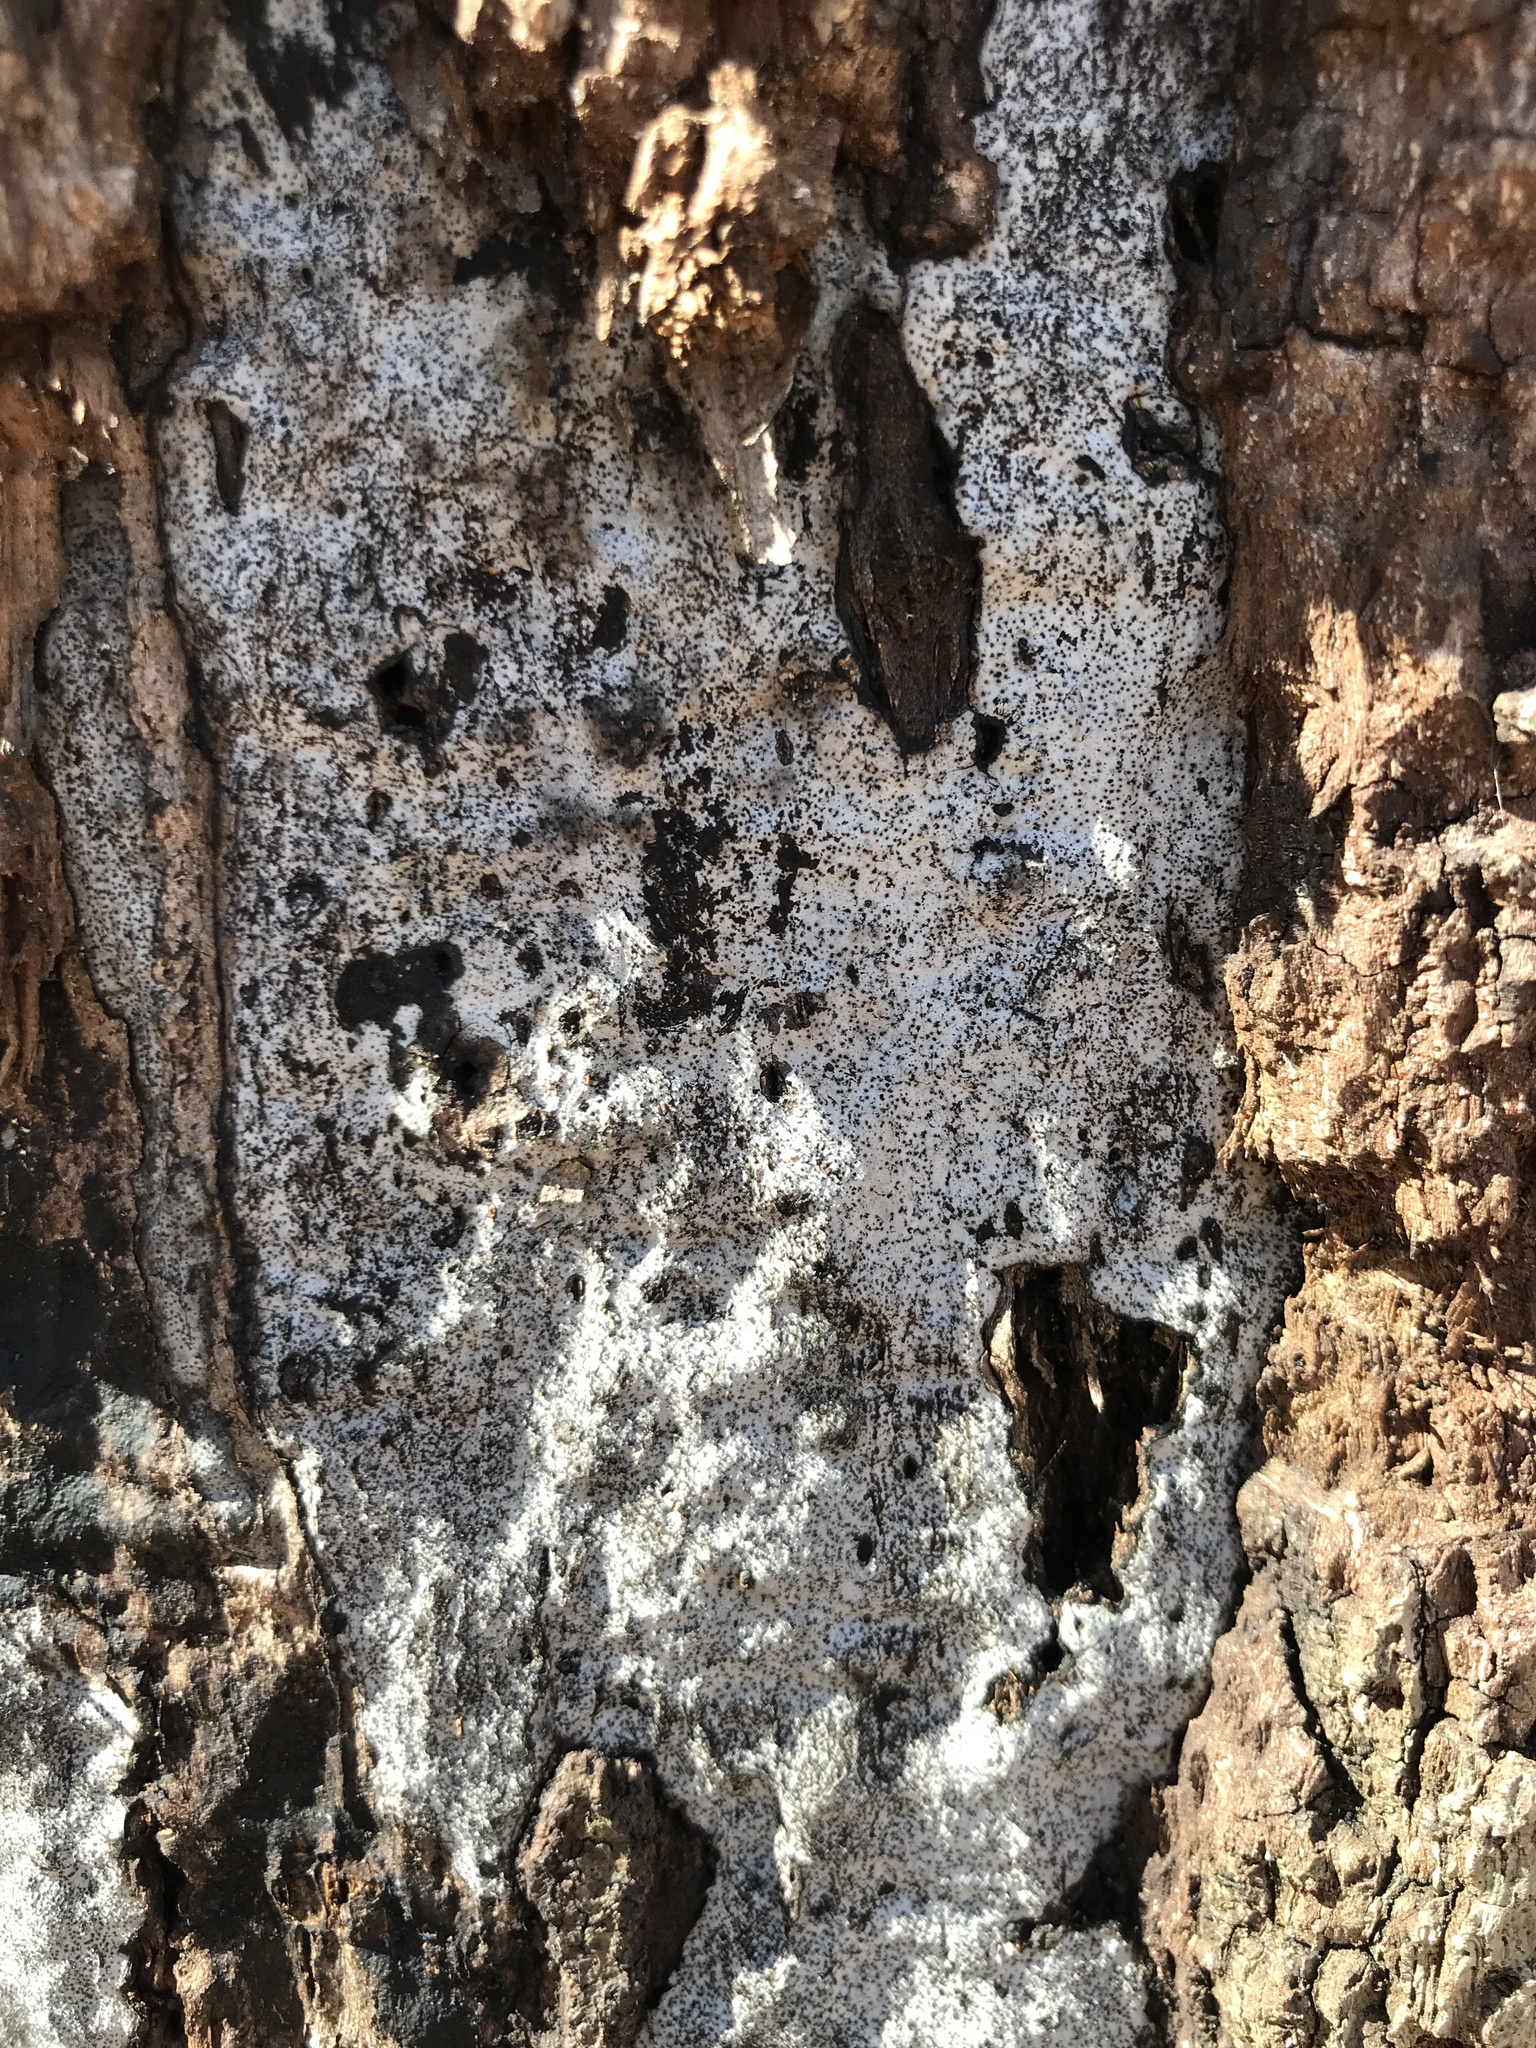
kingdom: Fungi
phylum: Ascomycota
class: Sordariomycetes
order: Xylariales
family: Graphostromataceae
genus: Biscogniauxia
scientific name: Biscogniauxia atropunctata
